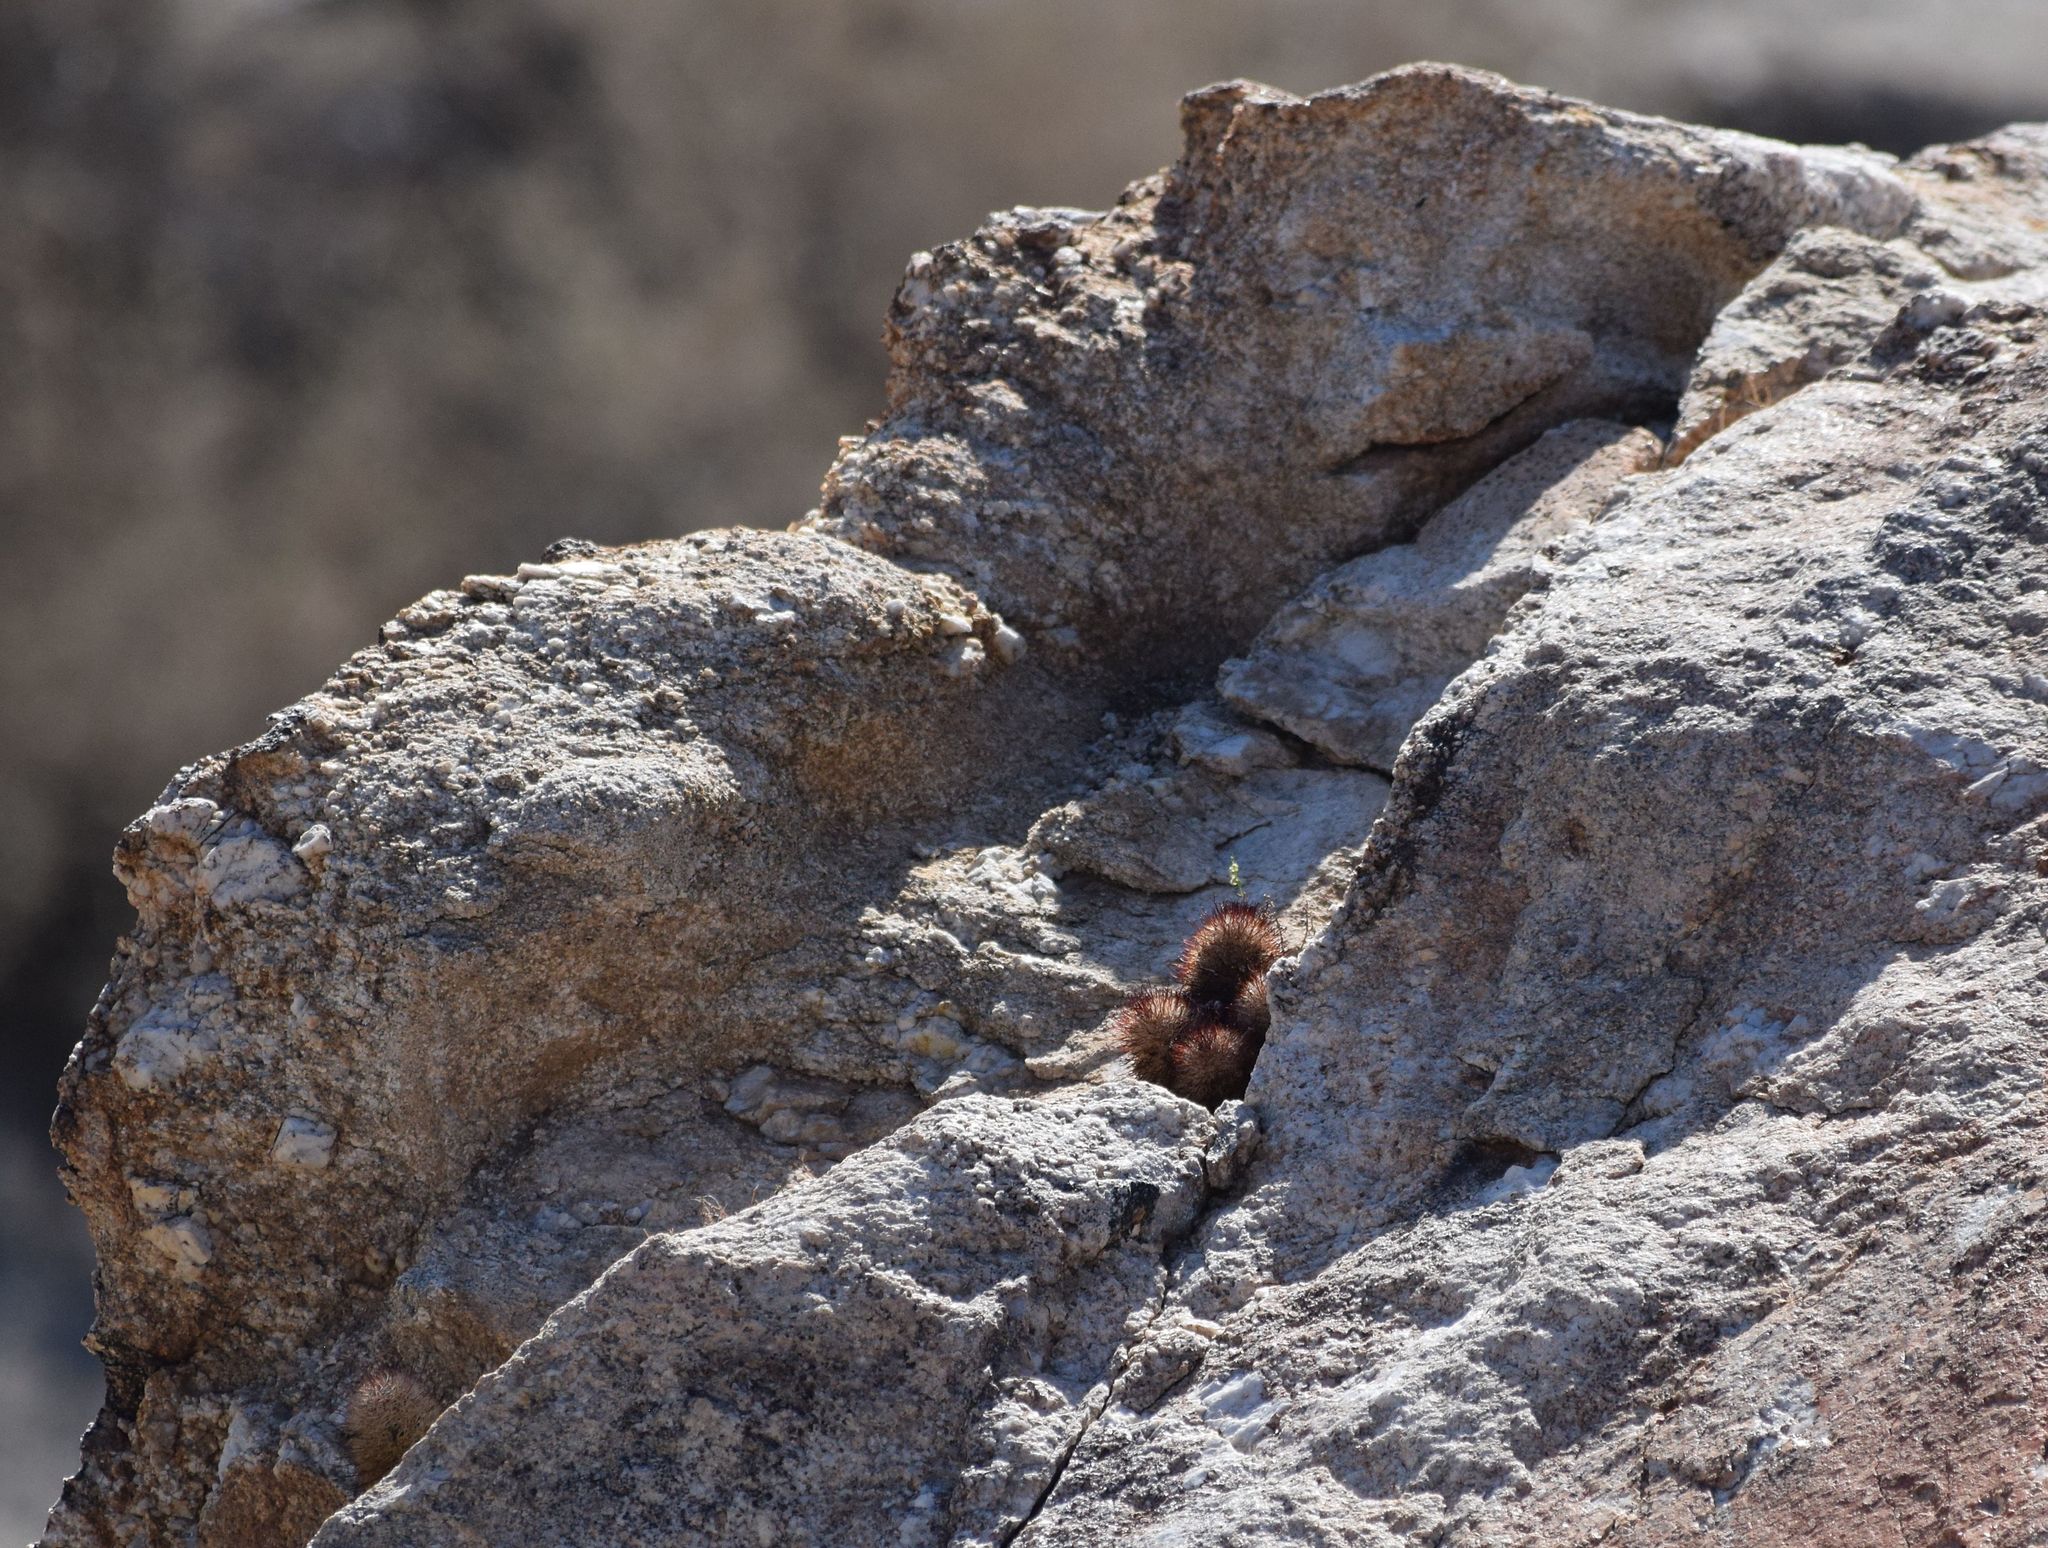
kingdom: Plantae
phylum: Tracheophyta
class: Magnoliopsida
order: Caryophyllales
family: Cactaceae
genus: Cochemiea
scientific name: Cochemiea dioica
